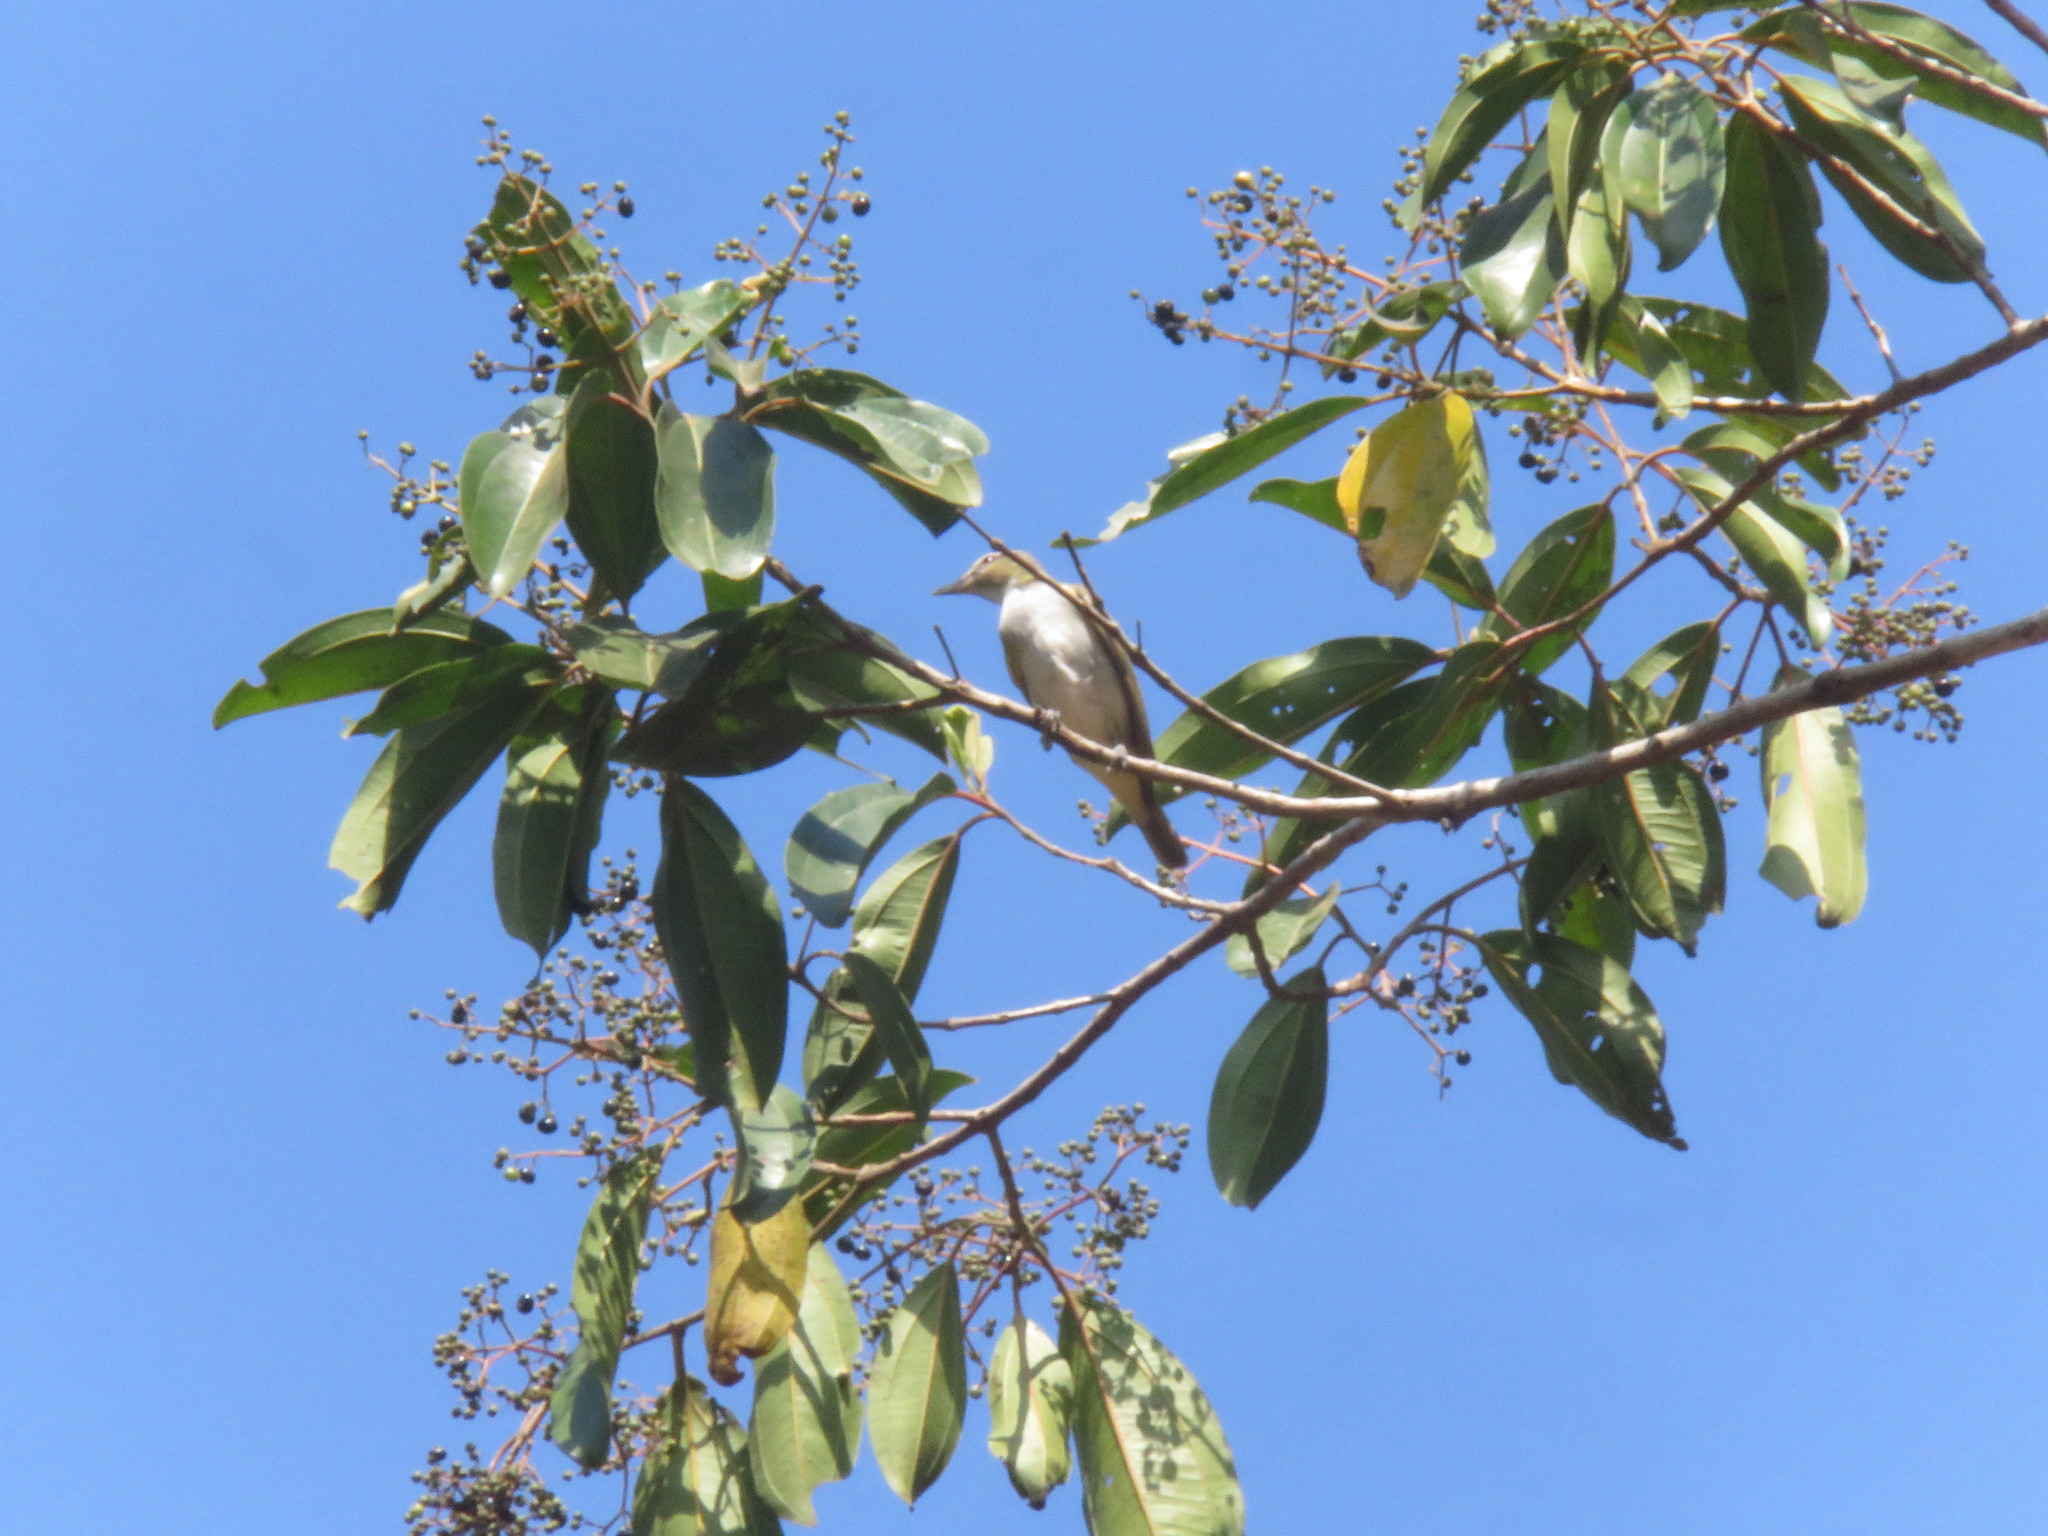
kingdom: Animalia
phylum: Chordata
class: Aves
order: Passeriformes
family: Vireonidae
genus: Vireo
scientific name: Vireo olivaceus
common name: Red-eyed vireo
